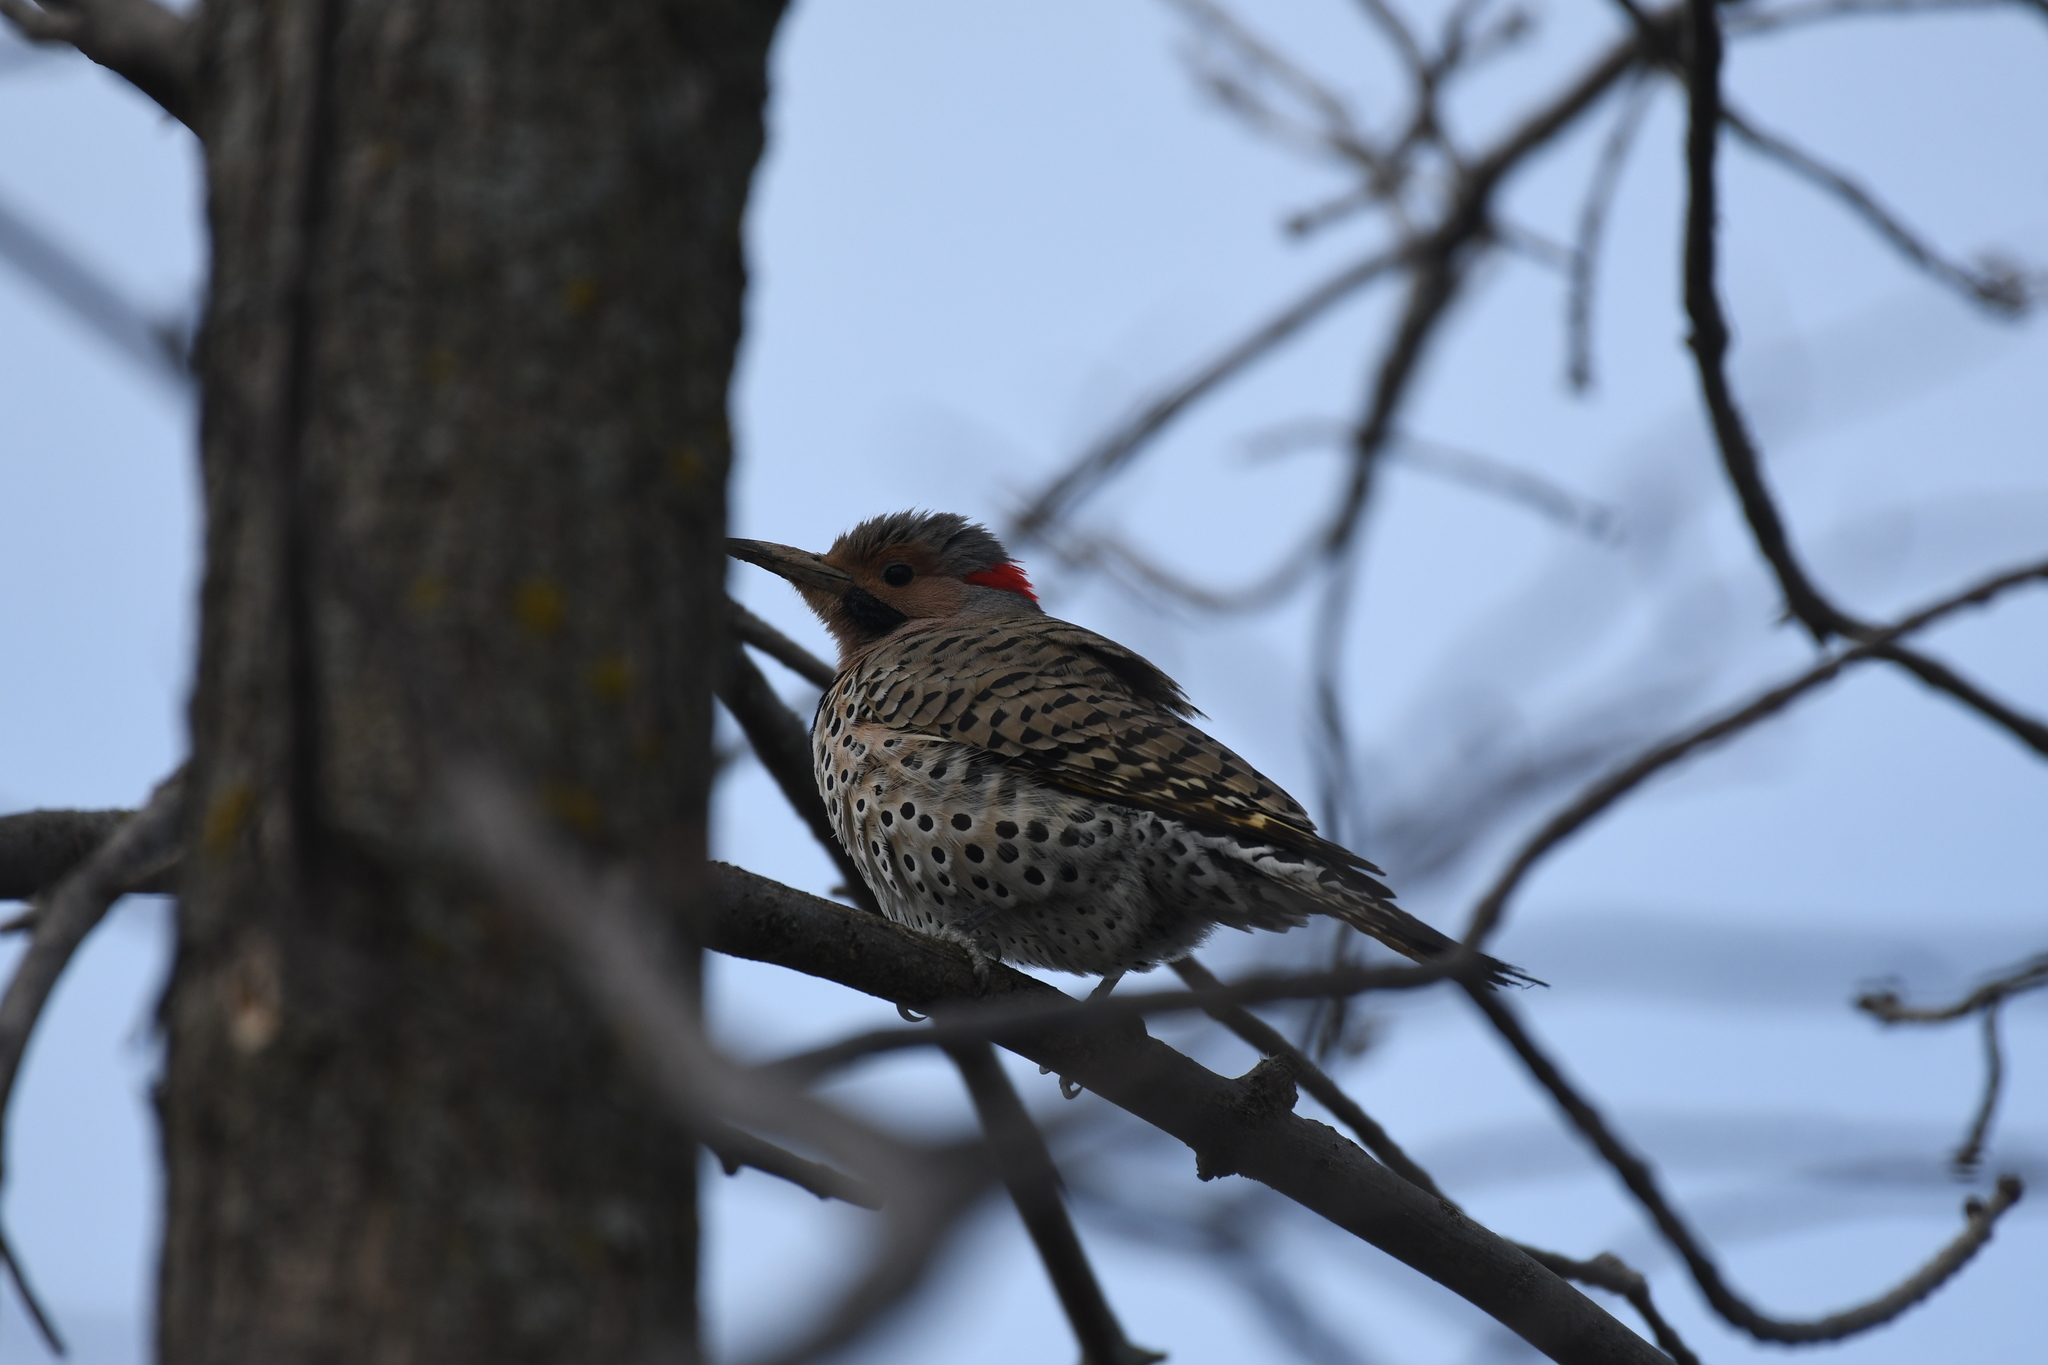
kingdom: Animalia
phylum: Chordata
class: Aves
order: Piciformes
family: Picidae
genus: Colaptes
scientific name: Colaptes auratus
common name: Northern flicker
